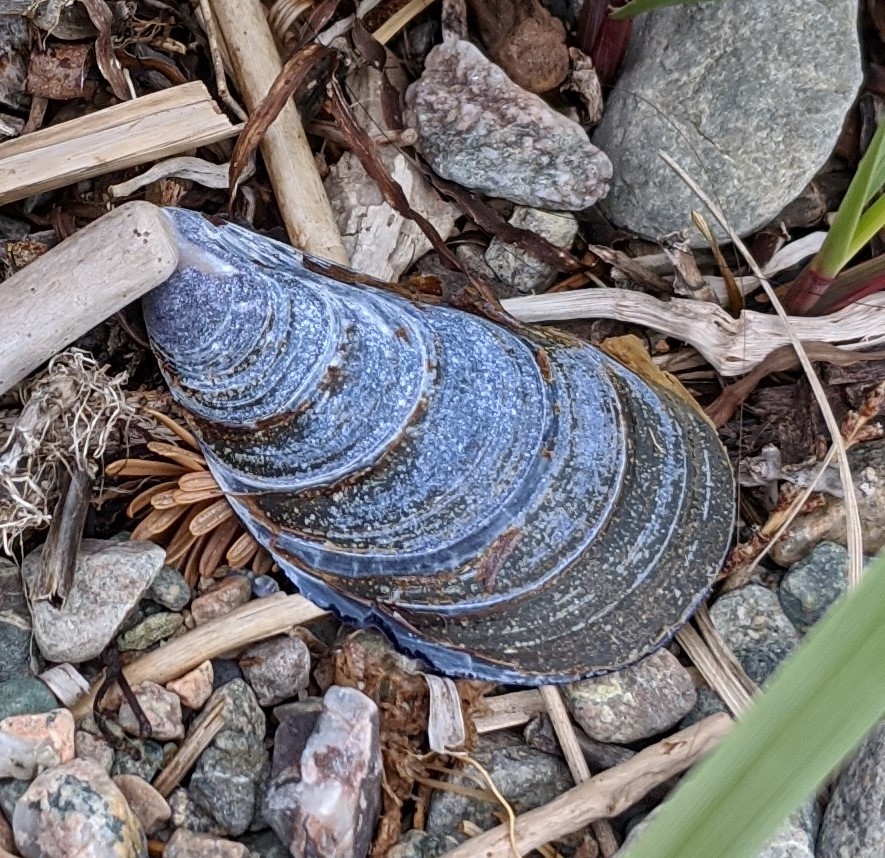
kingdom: Animalia
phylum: Mollusca
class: Bivalvia
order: Mytilida
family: Mytilidae
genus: Mytilus
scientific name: Mytilus
